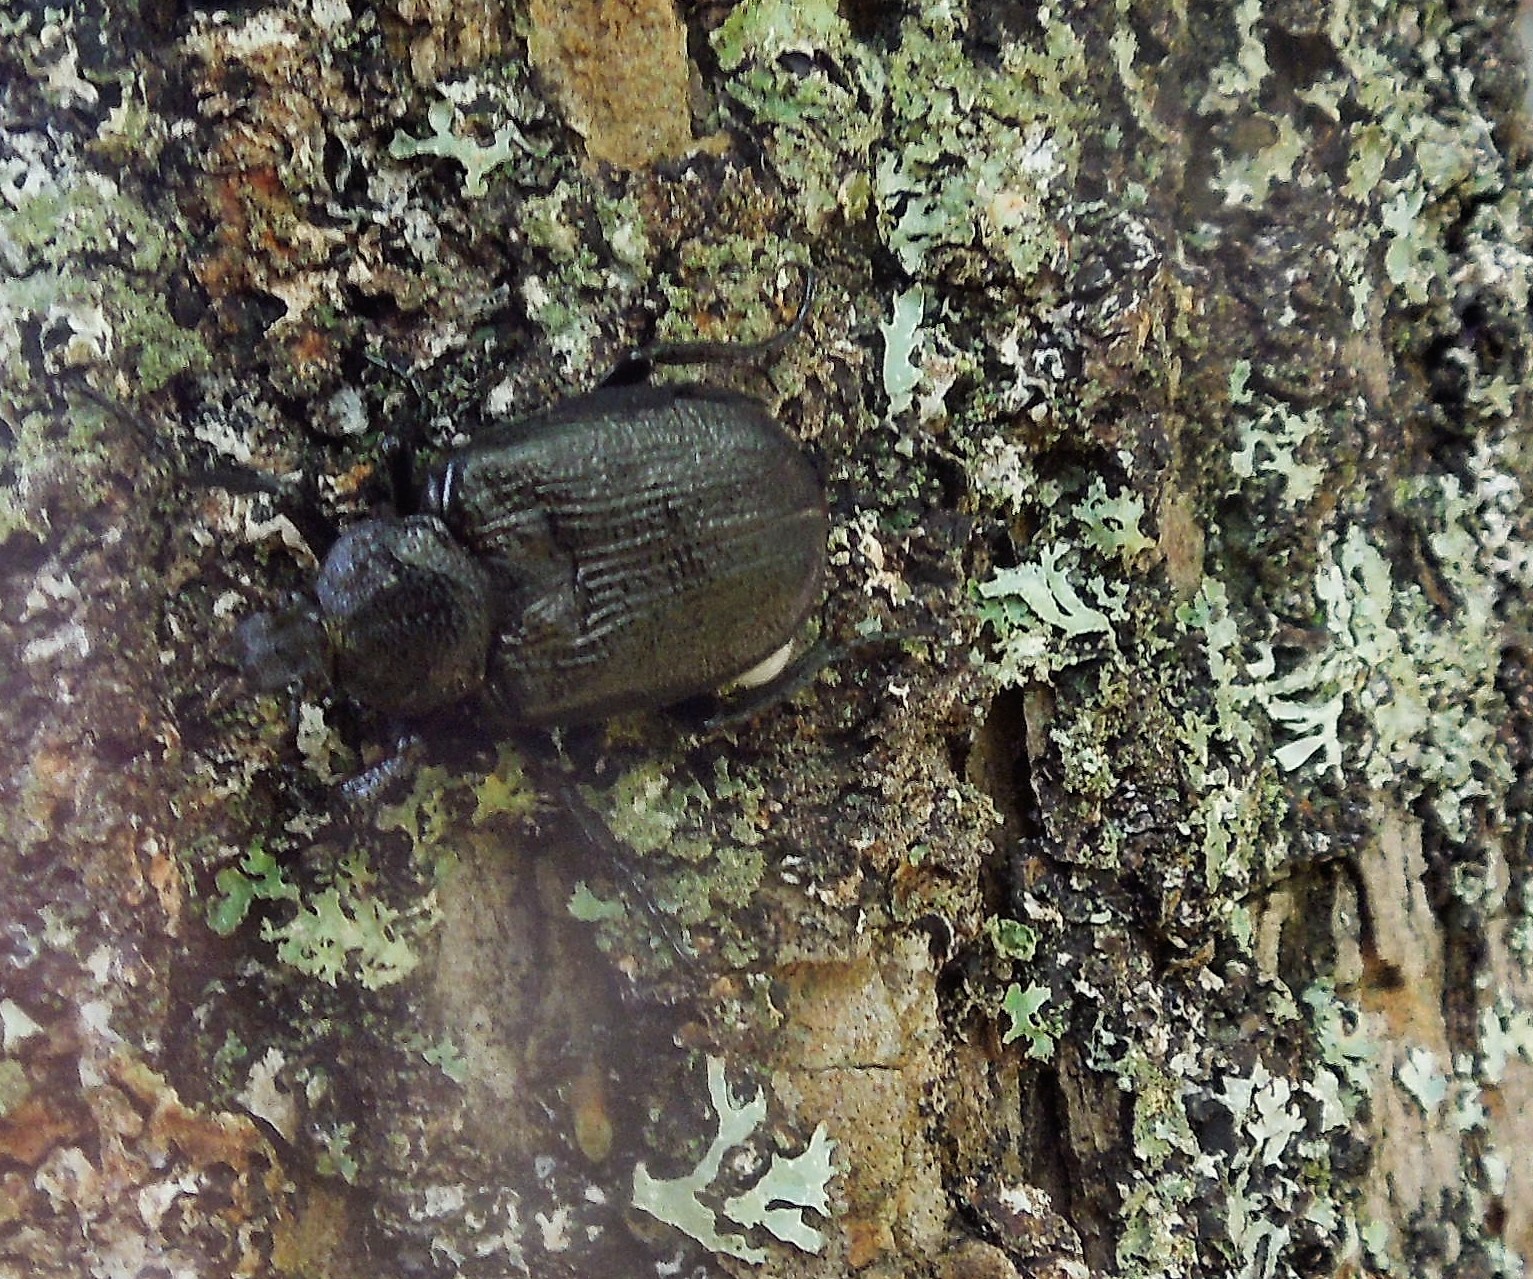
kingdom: Animalia
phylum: Arthropoda
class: Insecta
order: Coleoptera
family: Scarabaeidae
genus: Osmoderma
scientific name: Osmoderma scabra
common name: Rough hermit beetle
